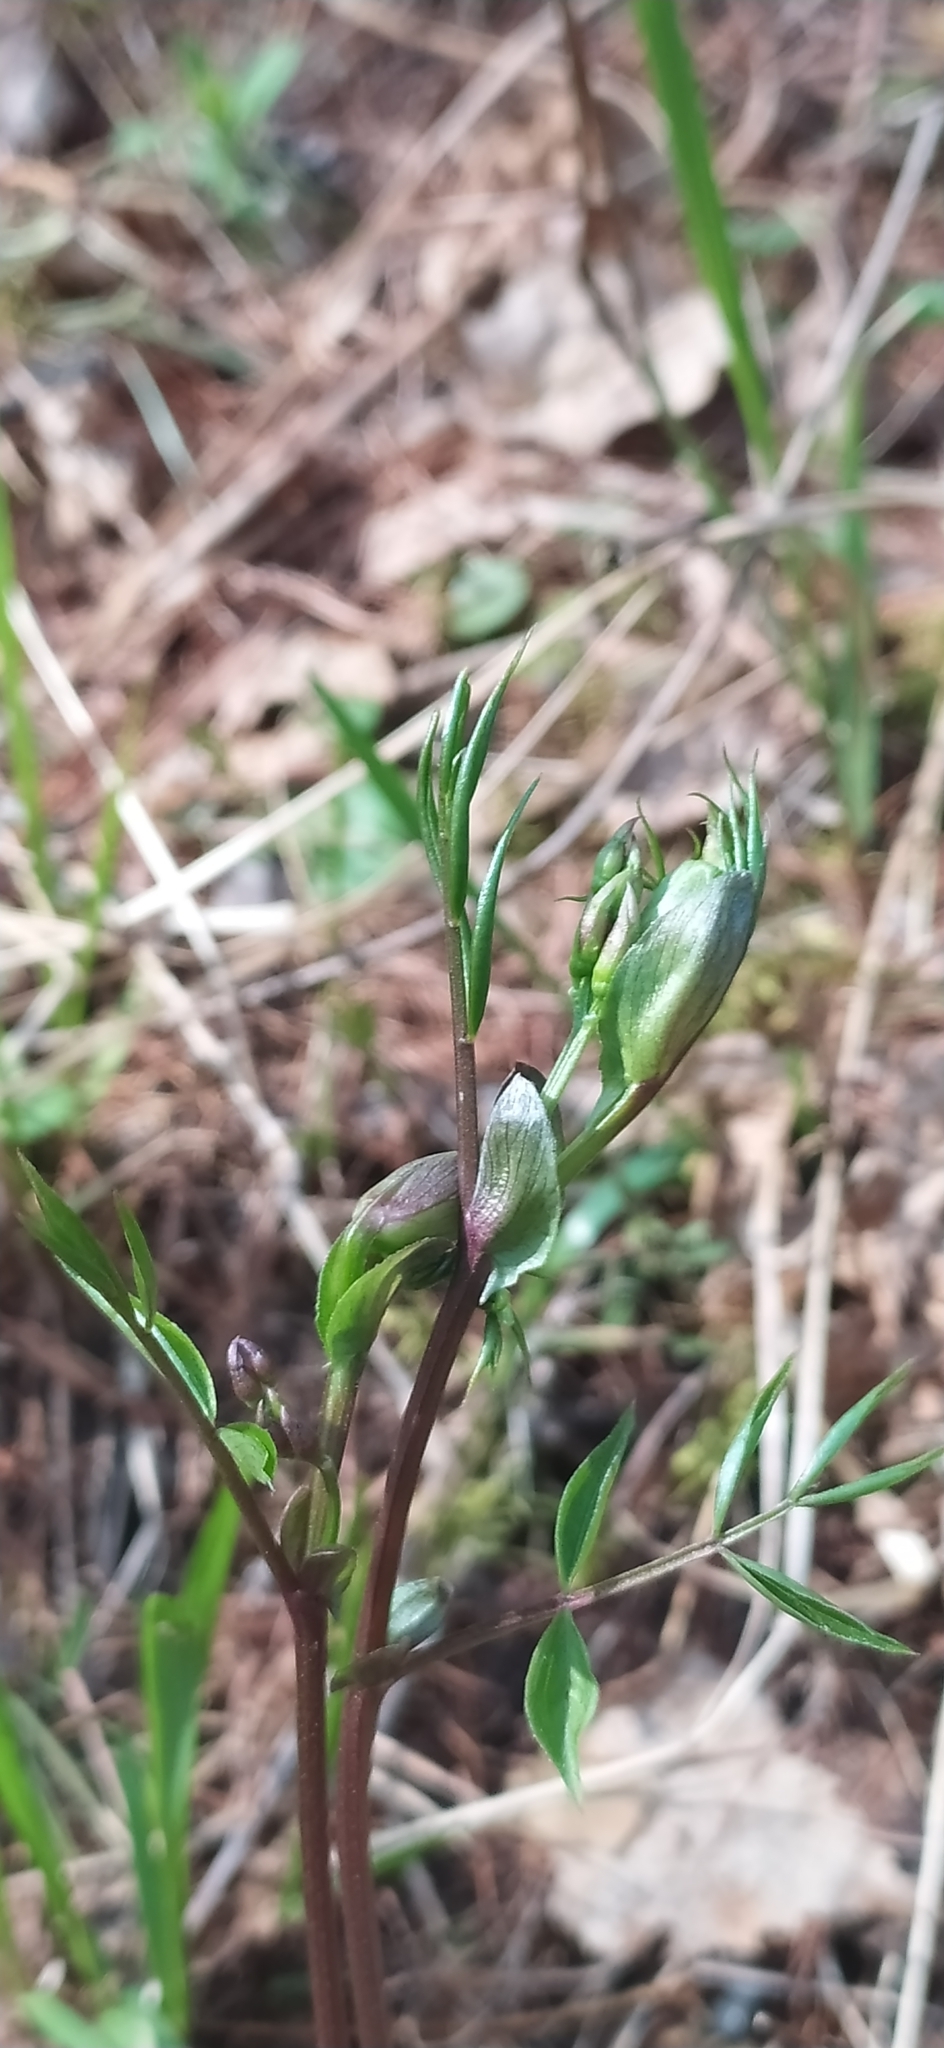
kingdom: Plantae
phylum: Tracheophyta
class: Magnoliopsida
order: Fabales
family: Fabaceae
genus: Lathyrus
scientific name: Lathyrus vernus
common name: Spring pea
